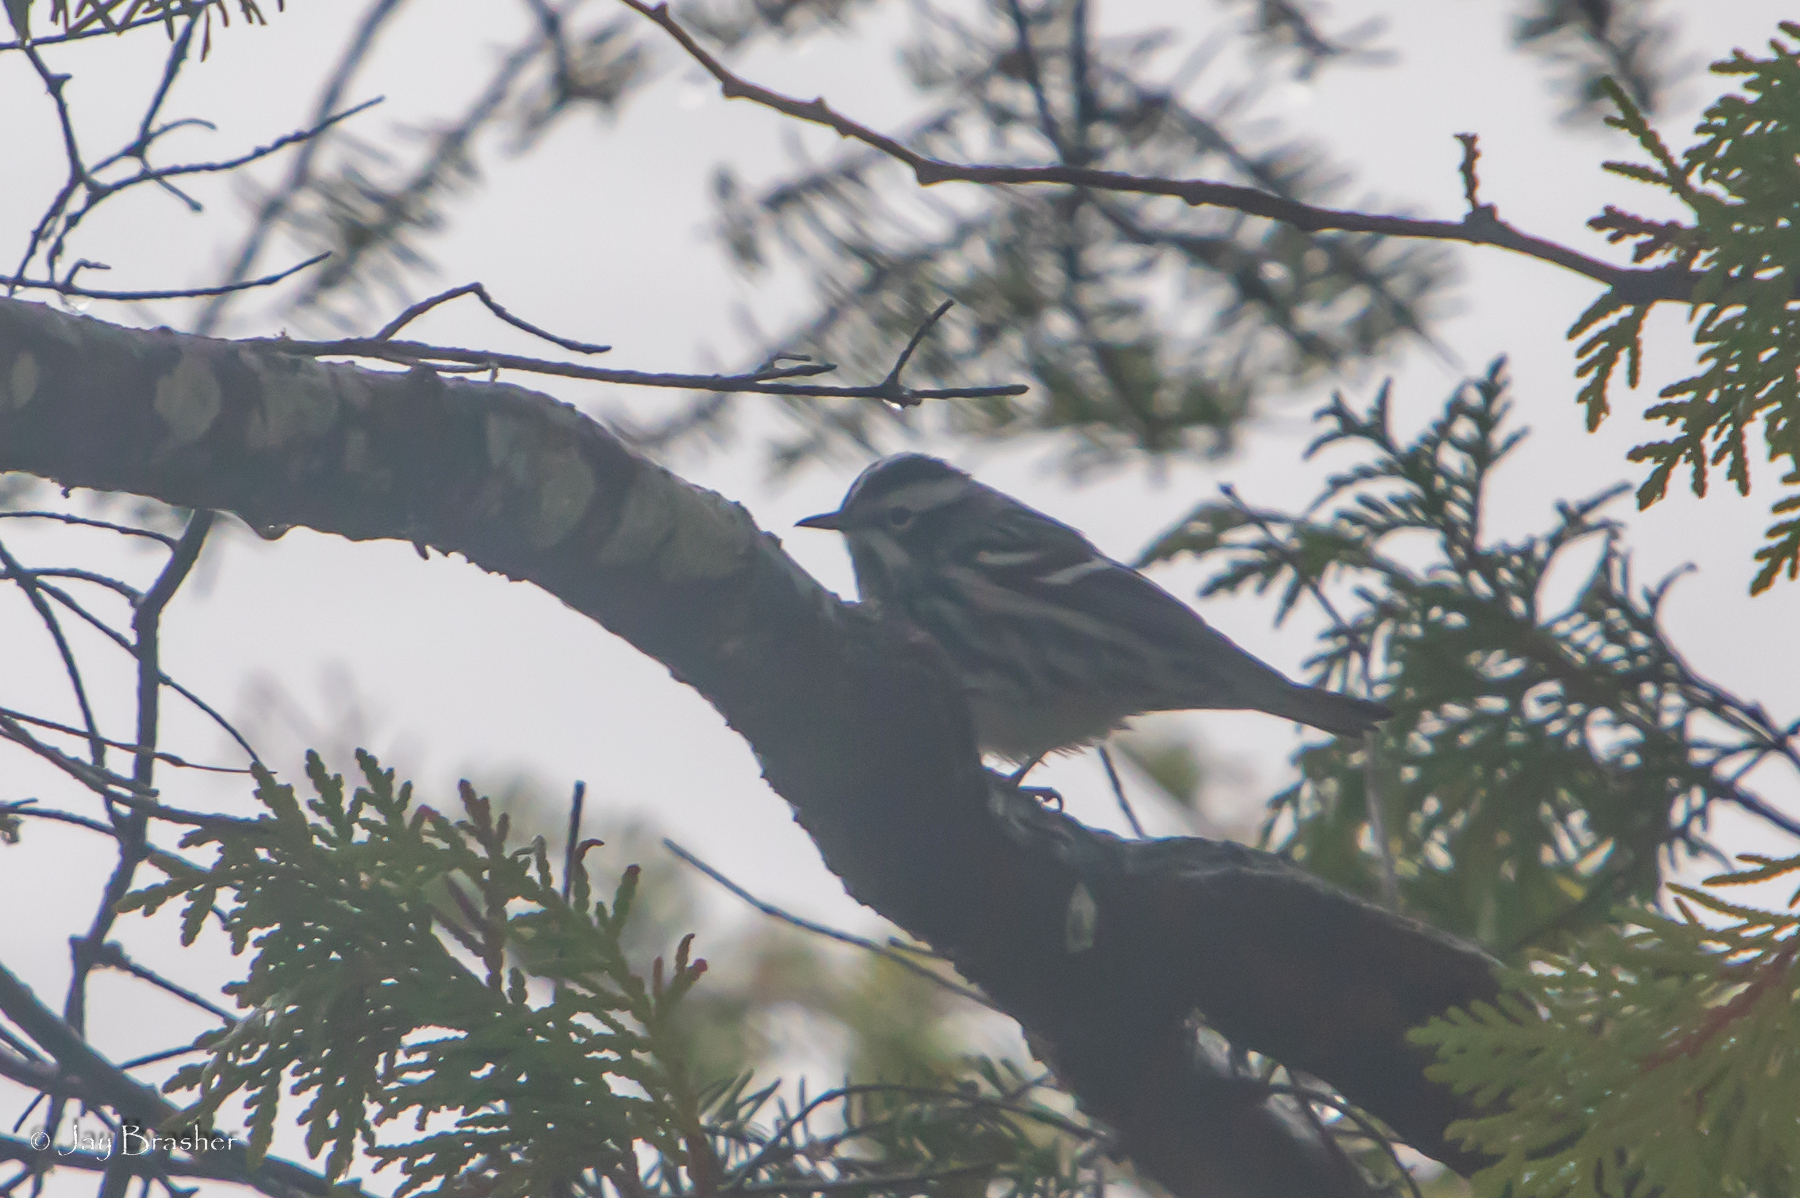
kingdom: Animalia
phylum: Chordata
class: Aves
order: Passeriformes
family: Parulidae
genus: Mniotilta
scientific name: Mniotilta varia
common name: Black-and-white warbler
